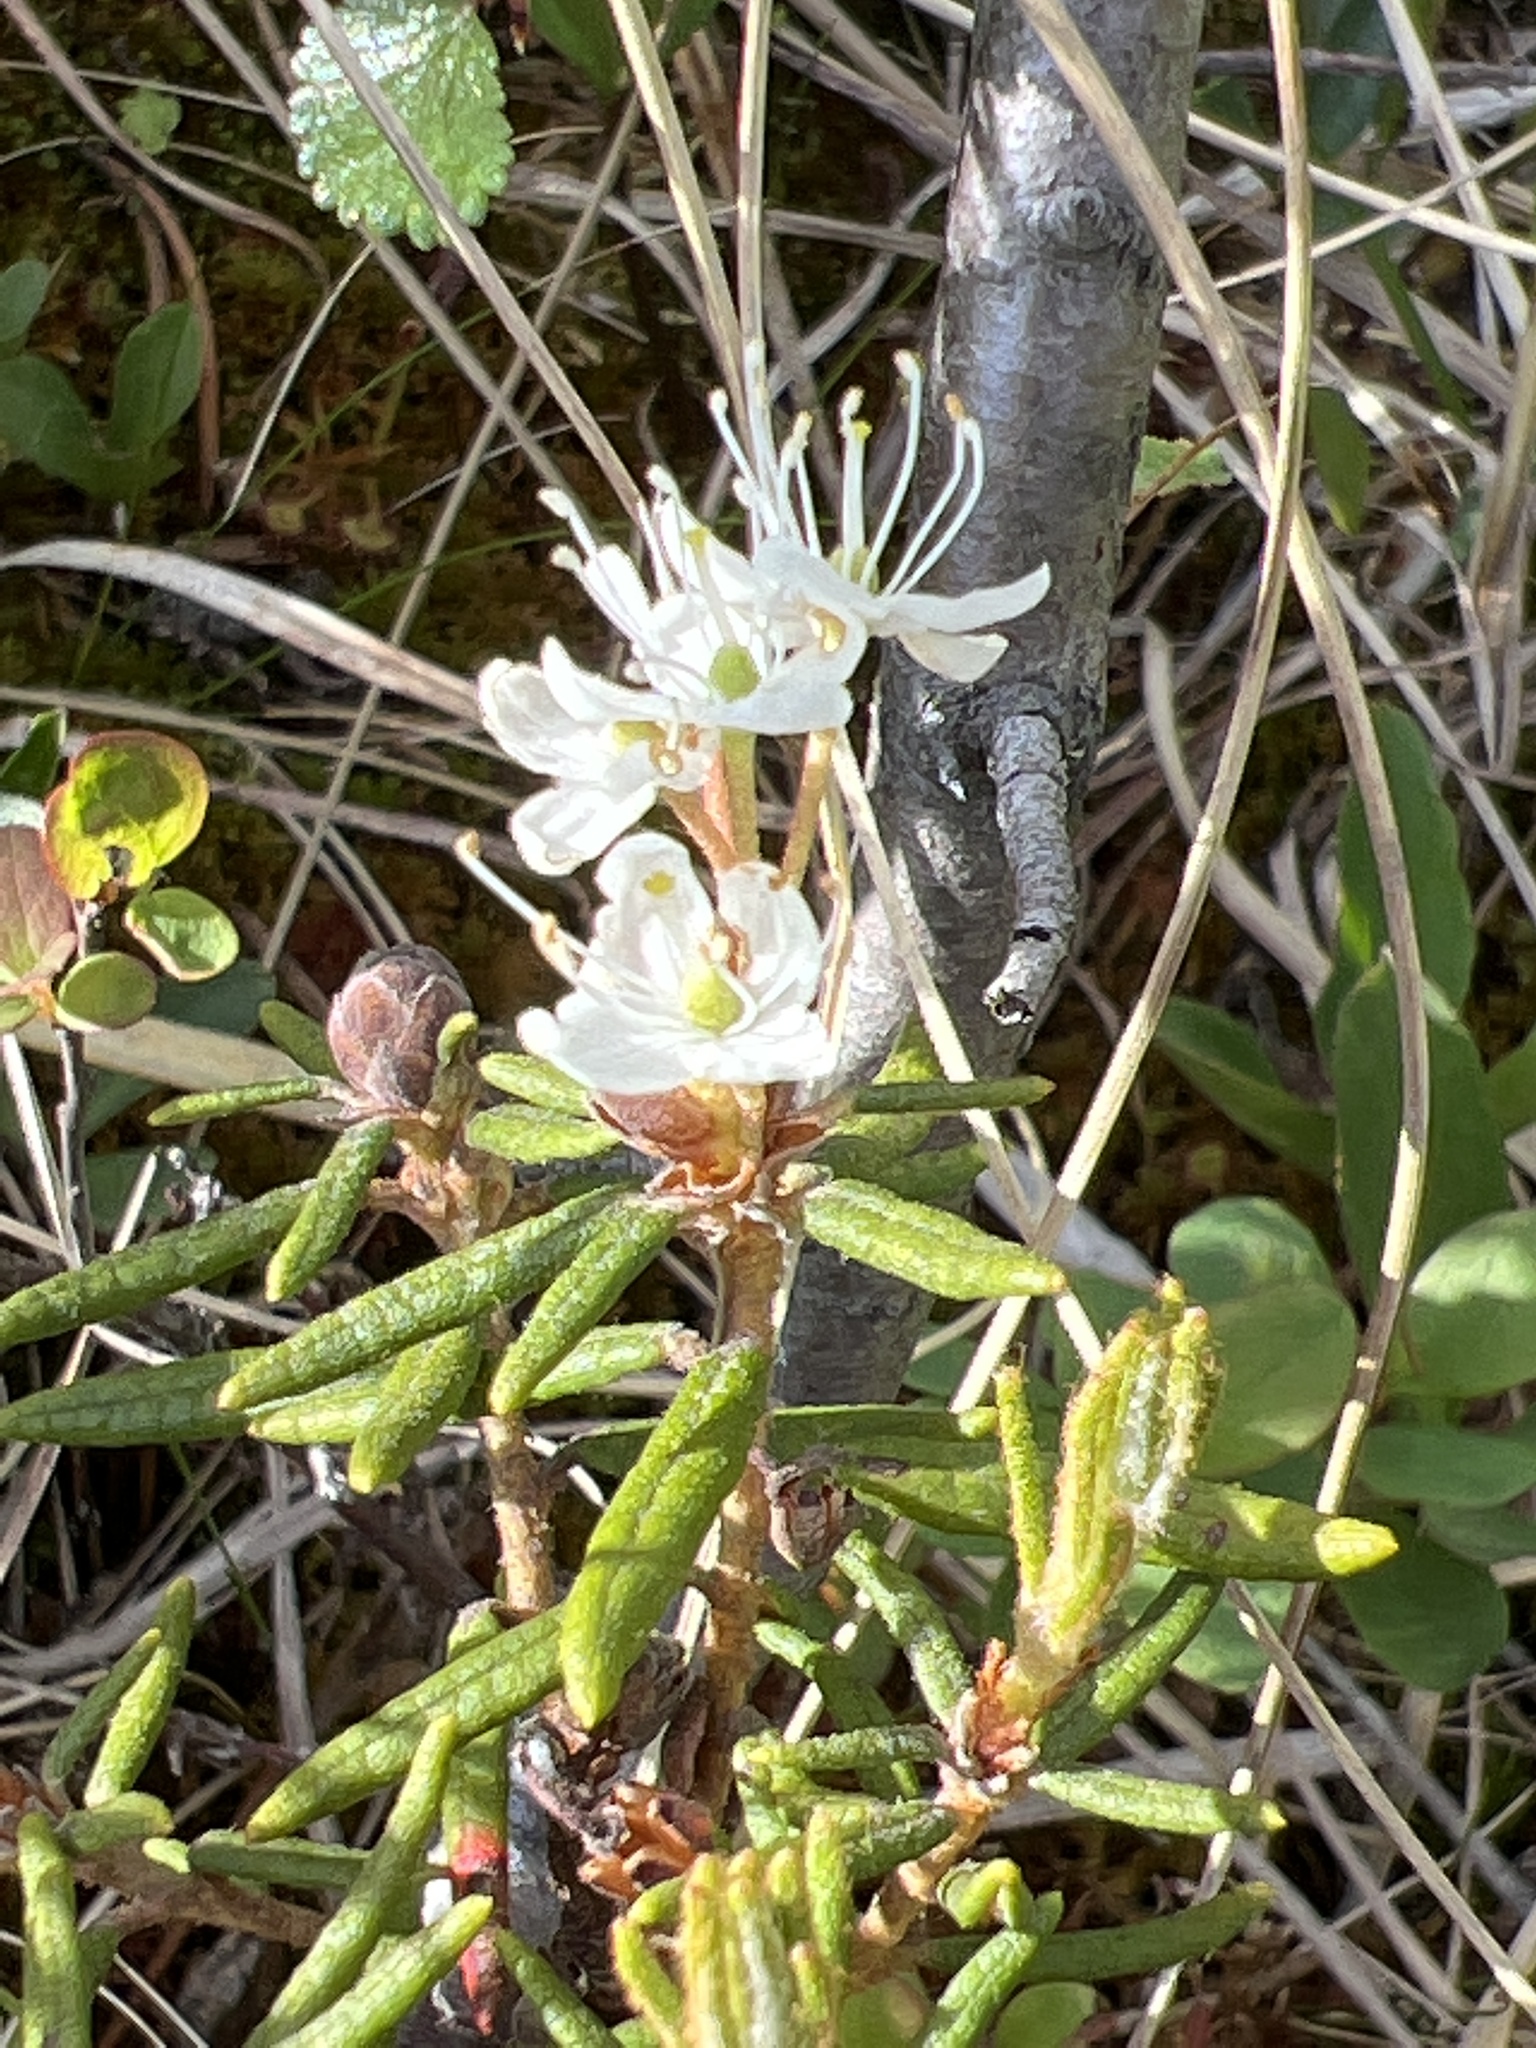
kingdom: Plantae
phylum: Tracheophyta
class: Magnoliopsida
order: Ericales
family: Ericaceae
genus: Rhododendron
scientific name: Rhododendron tomentosum
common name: Marsh labrador tea
